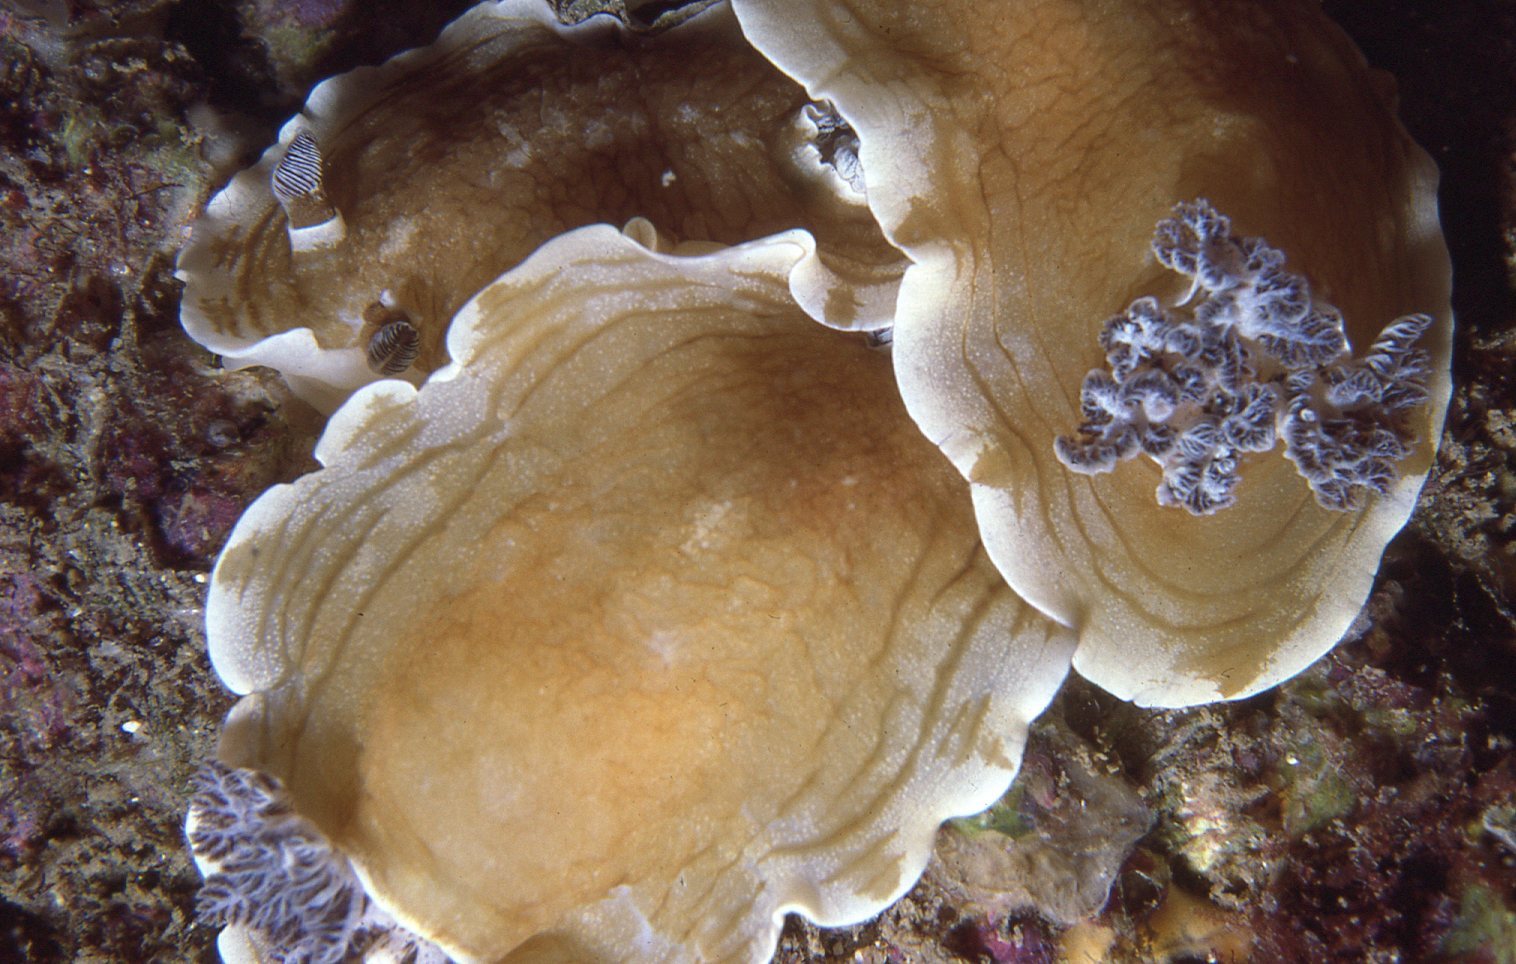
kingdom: Animalia
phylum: Mollusca
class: Gastropoda
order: Nudibranchia
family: Dorididae
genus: Aphelodoris
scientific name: Aphelodoris varia
